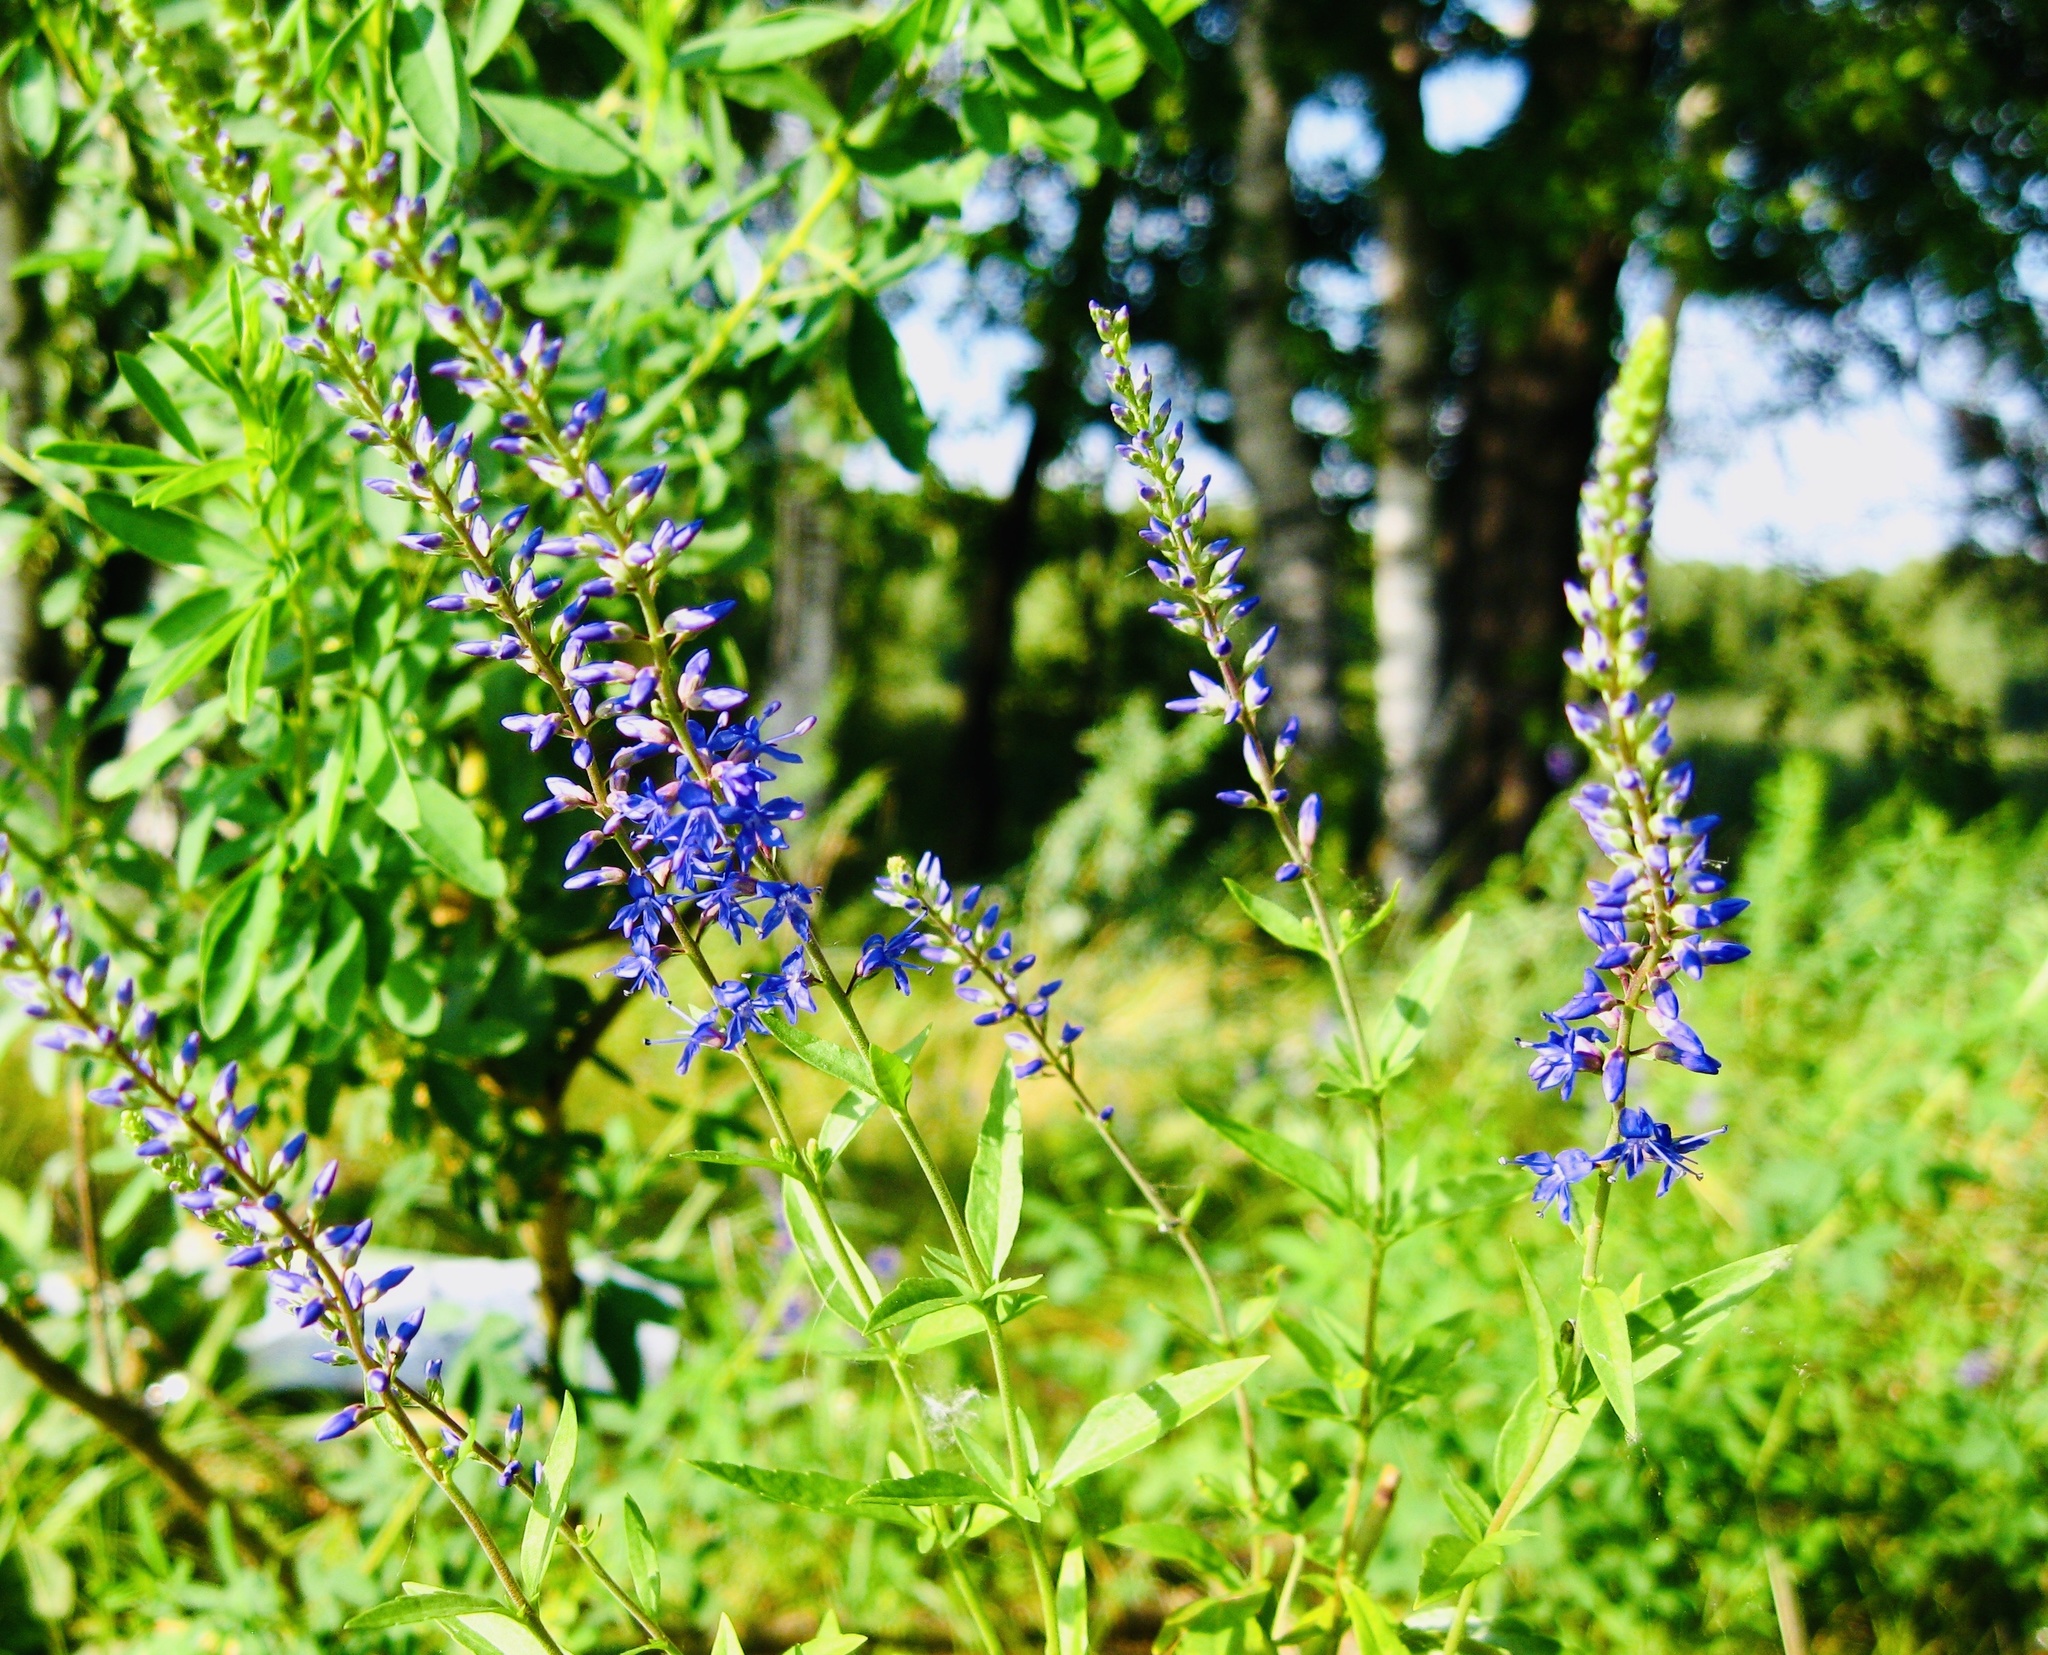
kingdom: Plantae
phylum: Tracheophyta
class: Magnoliopsida
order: Lamiales
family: Plantaginaceae
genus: Veronica
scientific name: Veronica spicata
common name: Spiked speedwell
